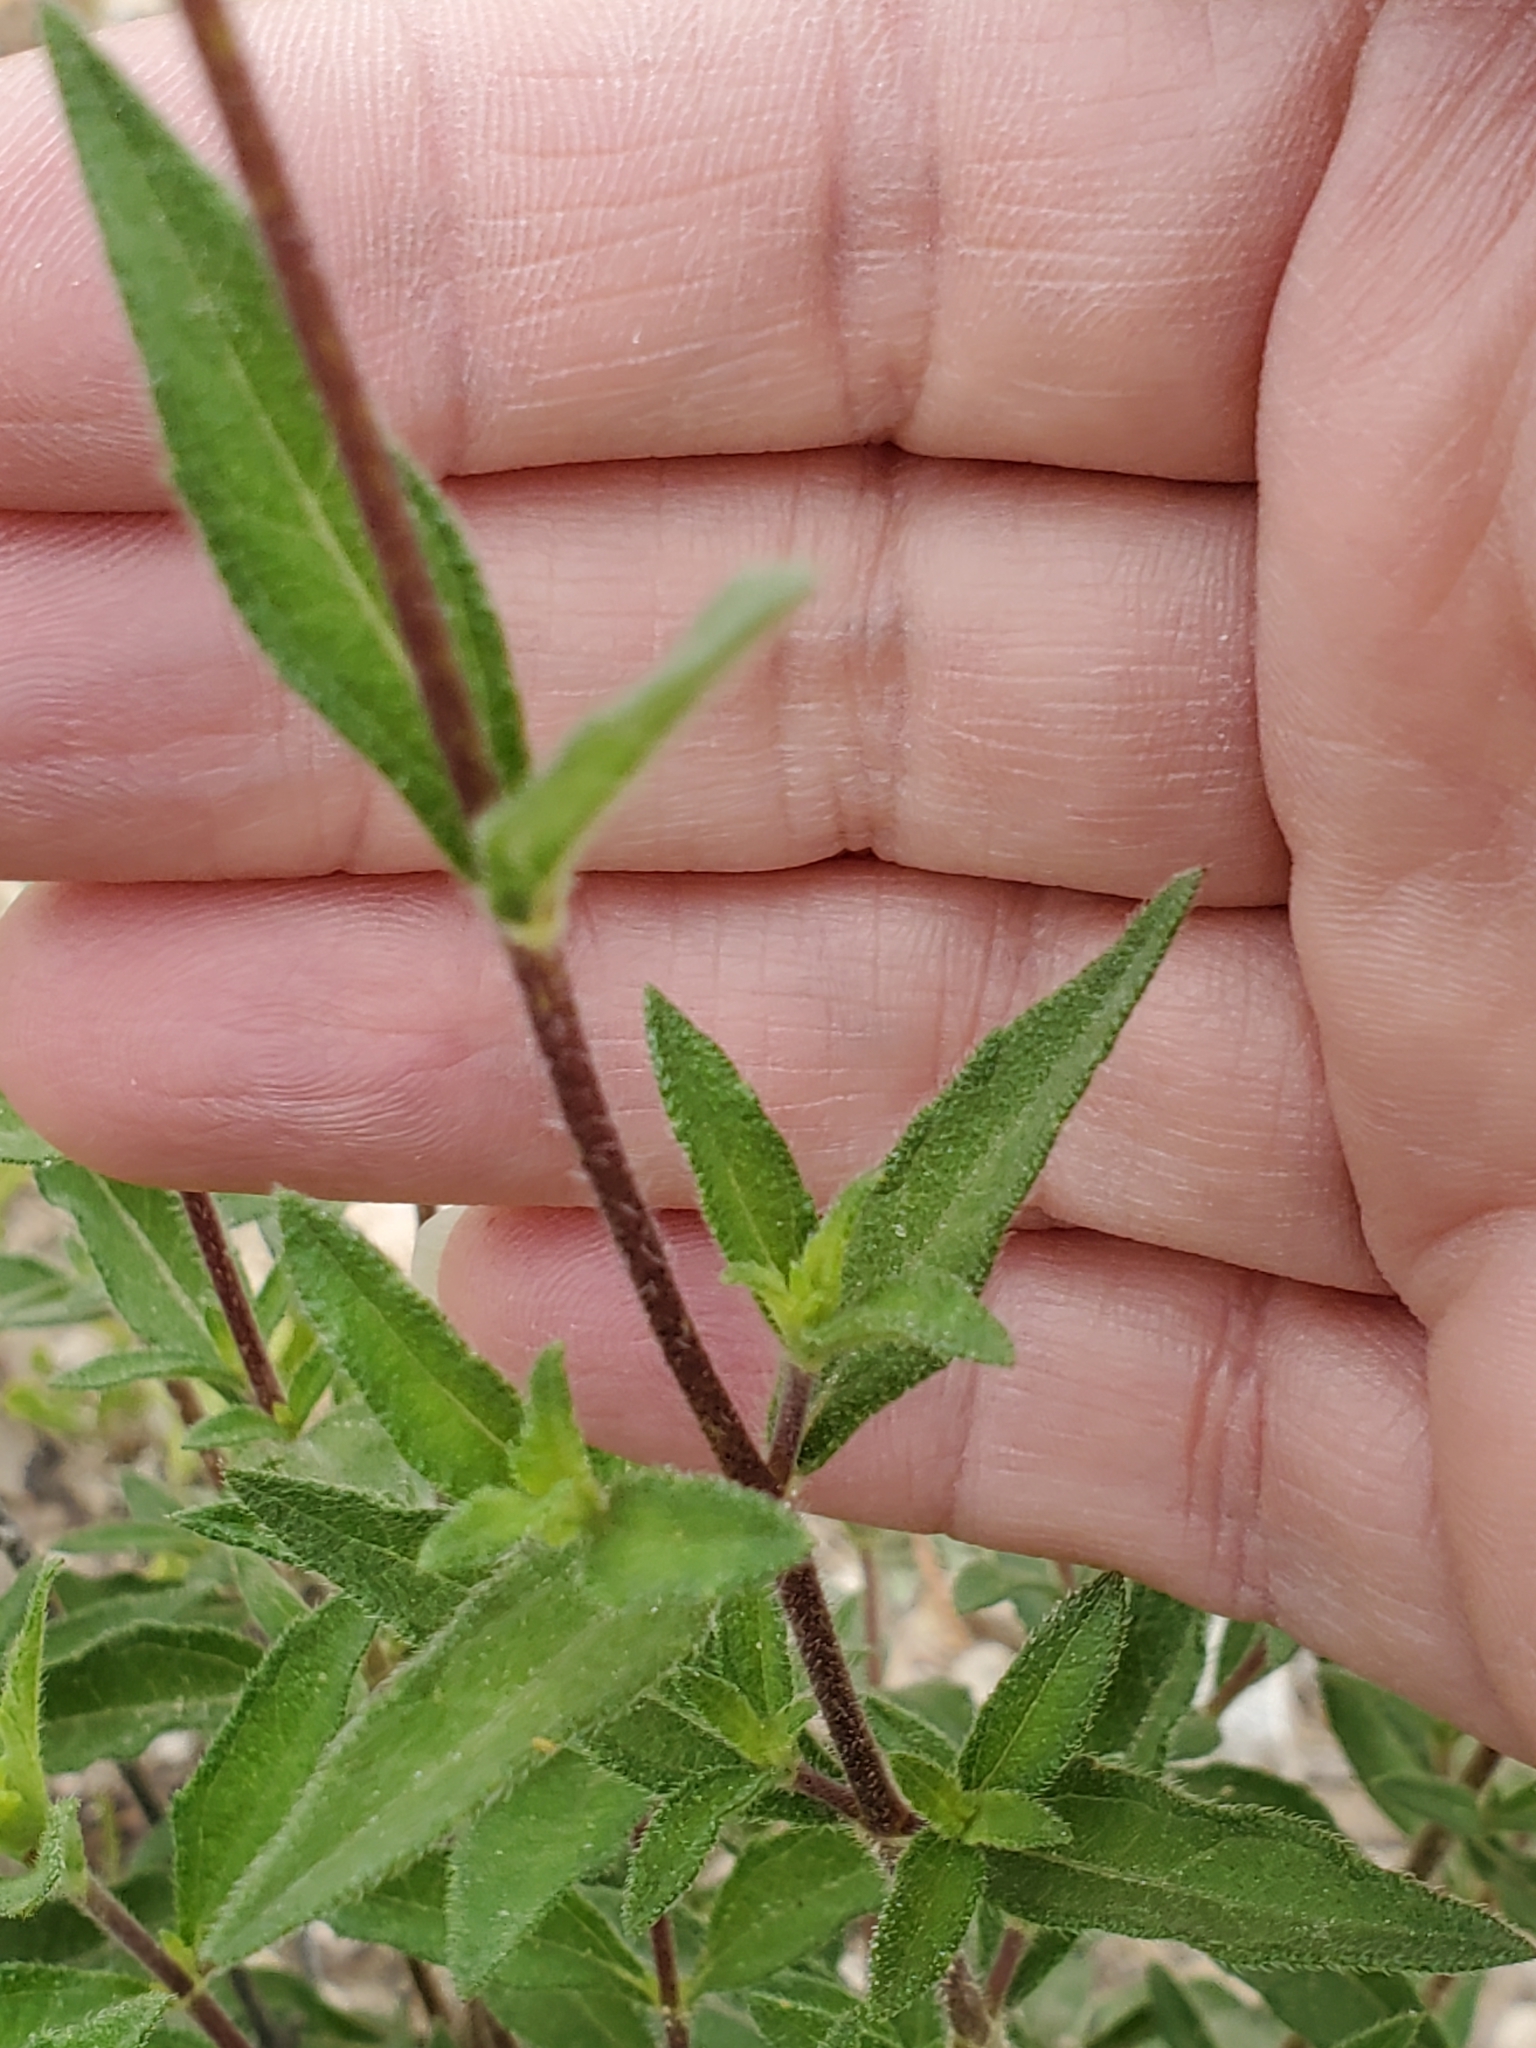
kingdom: Plantae
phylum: Tracheophyta
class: Magnoliopsida
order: Asterales
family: Asteraceae
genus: Wedelia
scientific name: Wedelia acapulcensis
